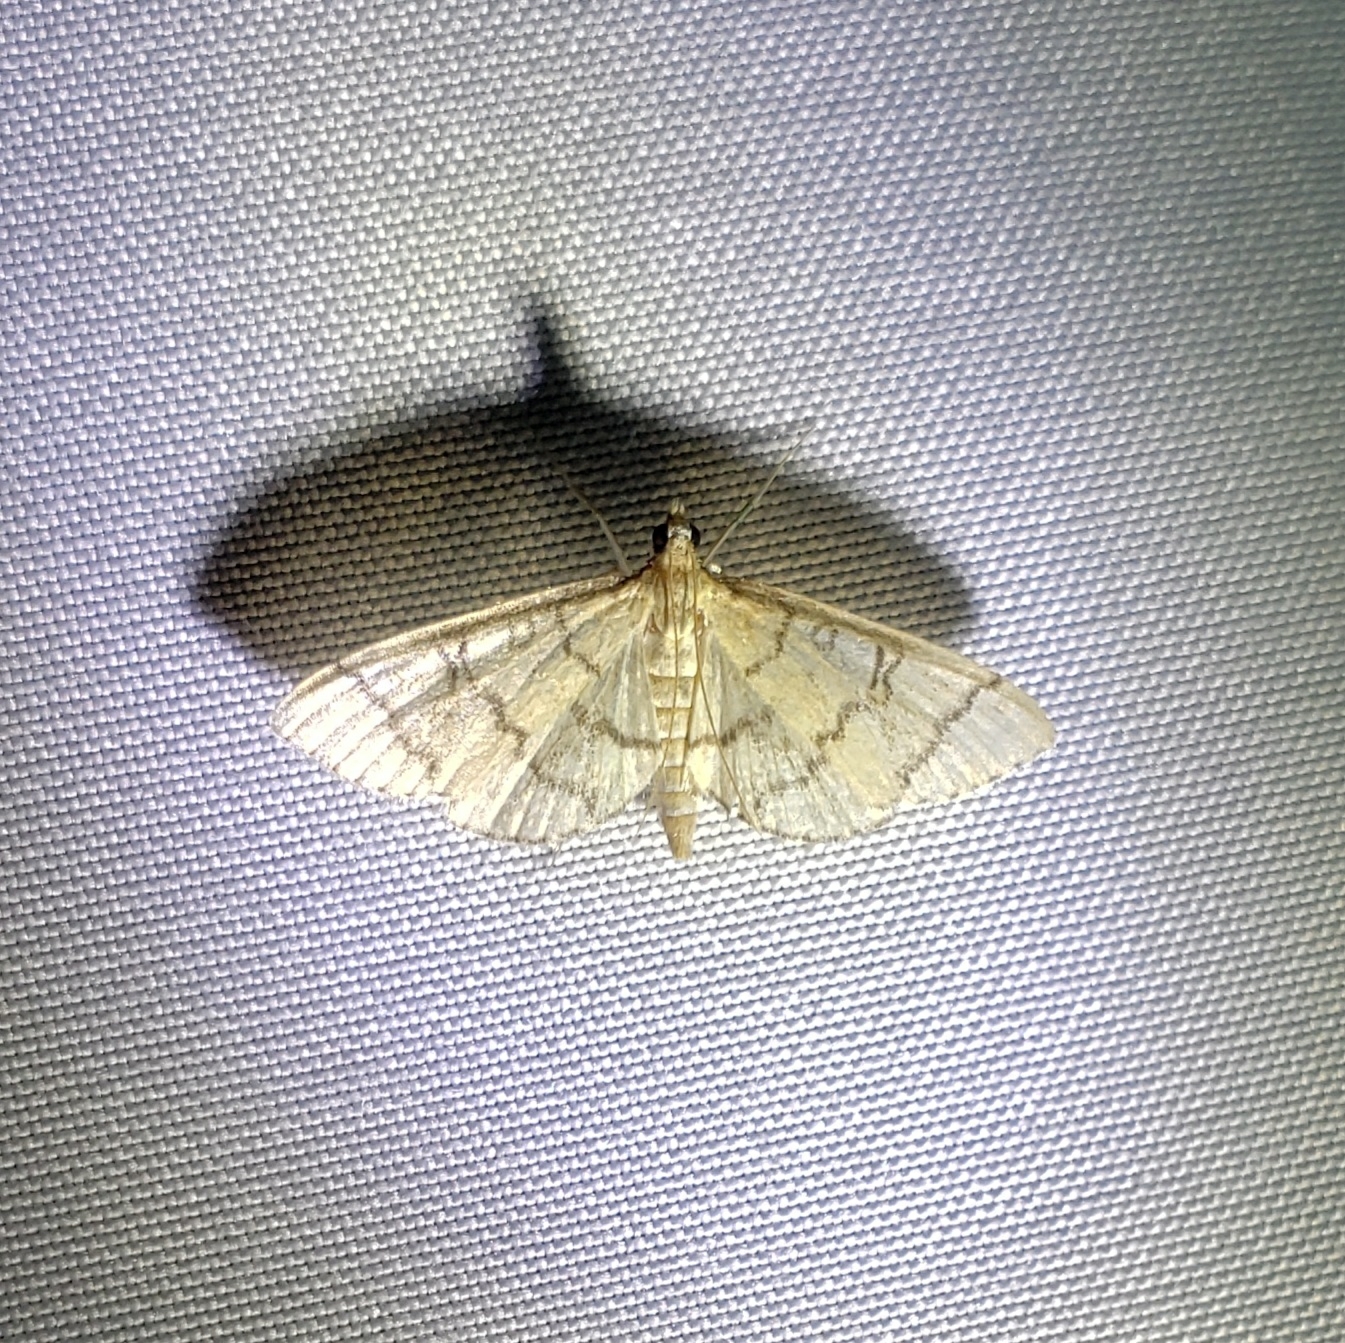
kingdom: Animalia
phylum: Arthropoda
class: Insecta
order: Lepidoptera
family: Crambidae
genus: Lamprosema
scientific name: Lamprosema Blepharomastix ranalis
